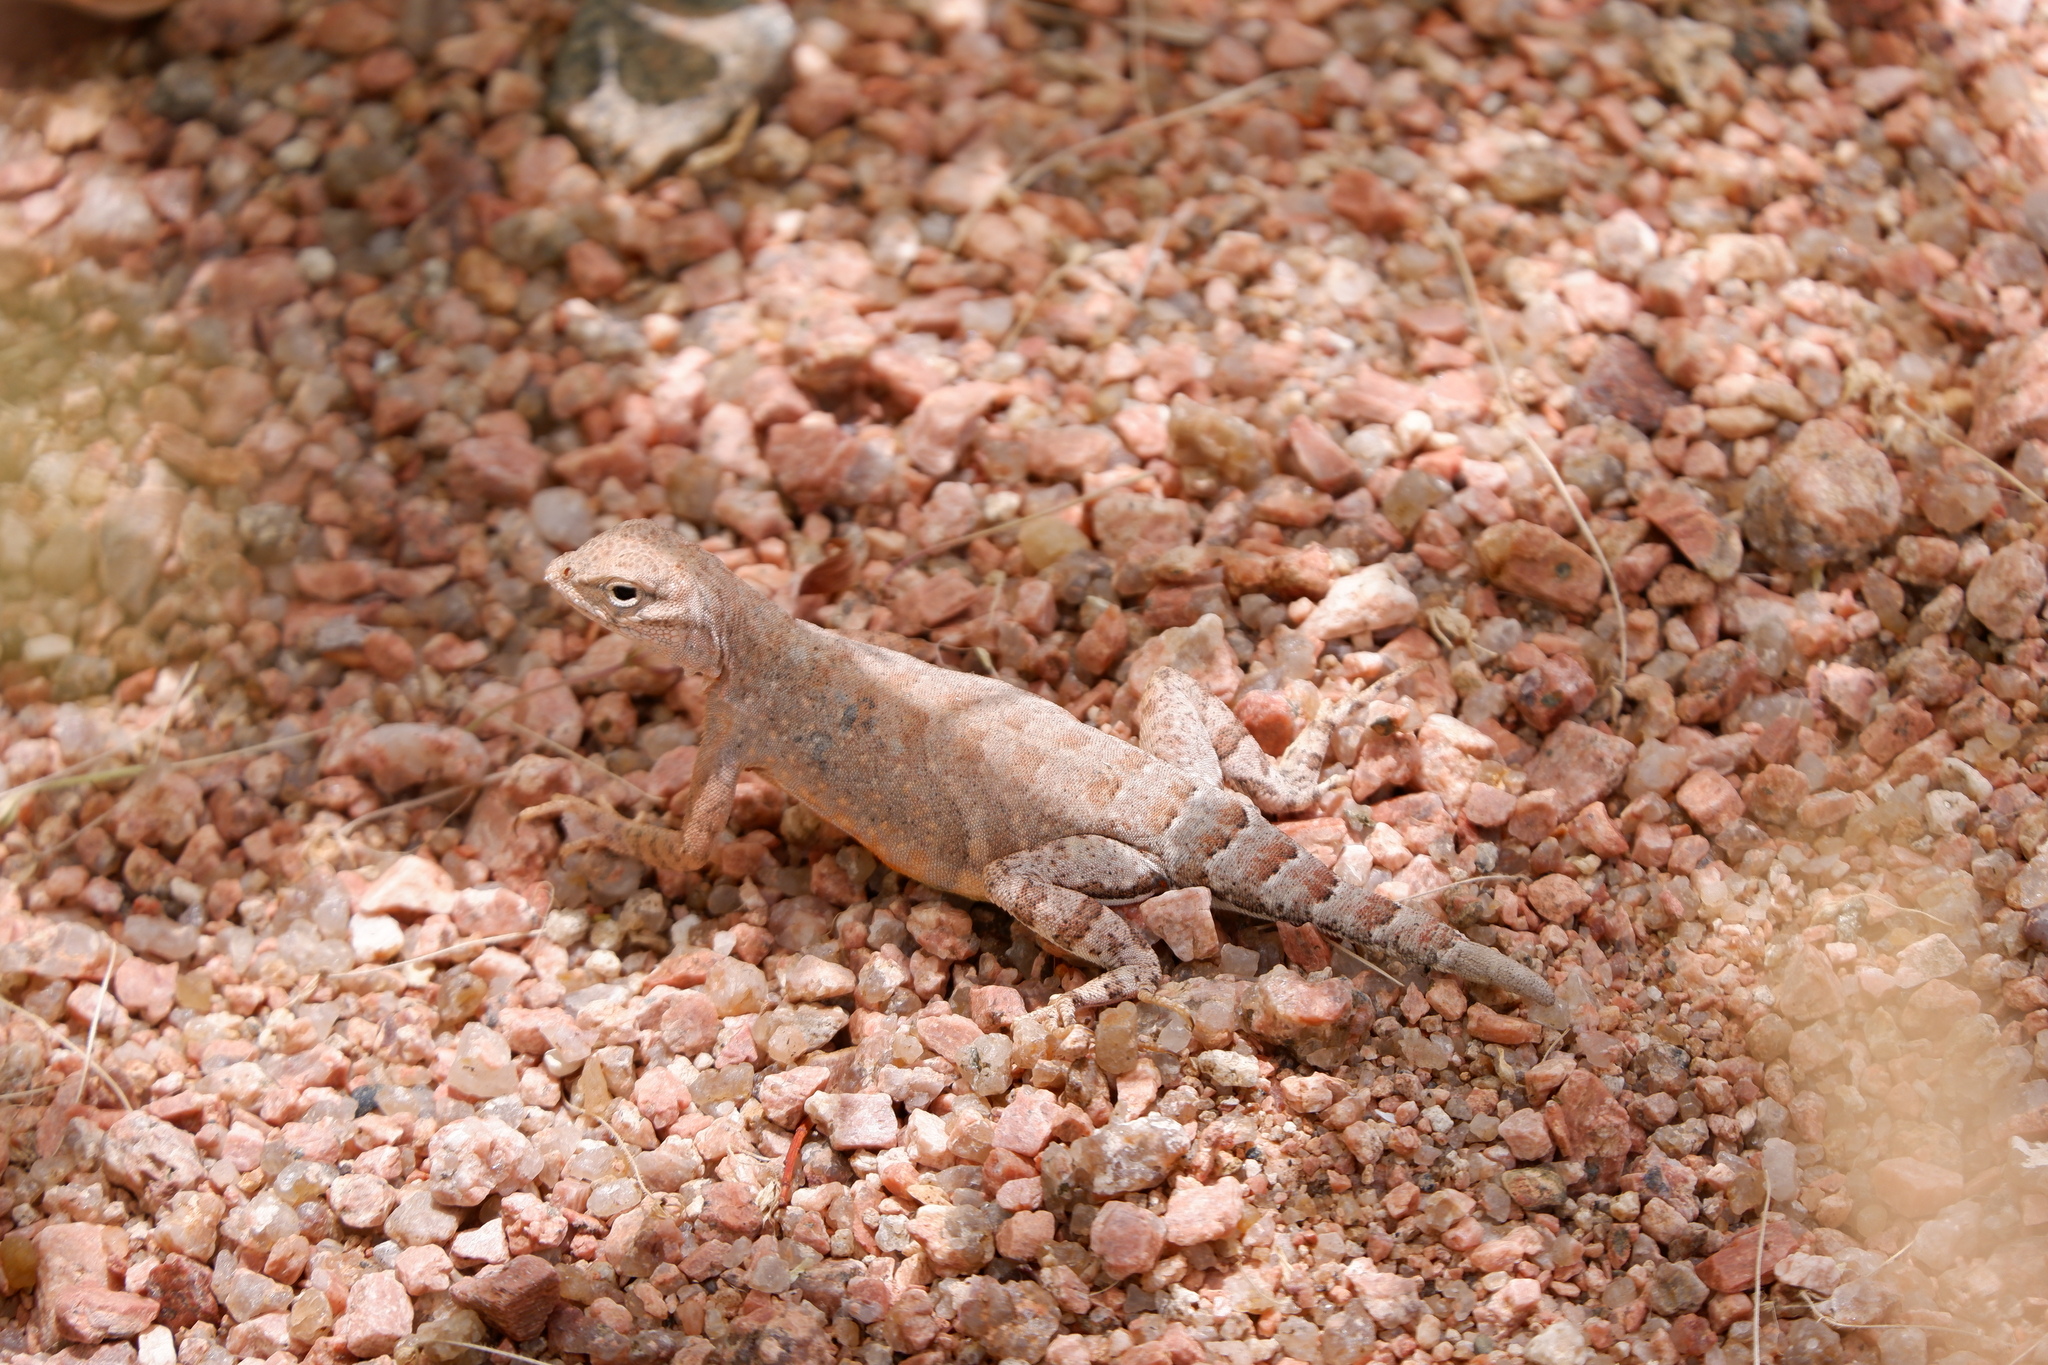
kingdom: Animalia
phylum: Chordata
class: Squamata
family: Phrynosomatidae
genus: Cophosaurus
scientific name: Cophosaurus texanus
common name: Greater earless lizard
